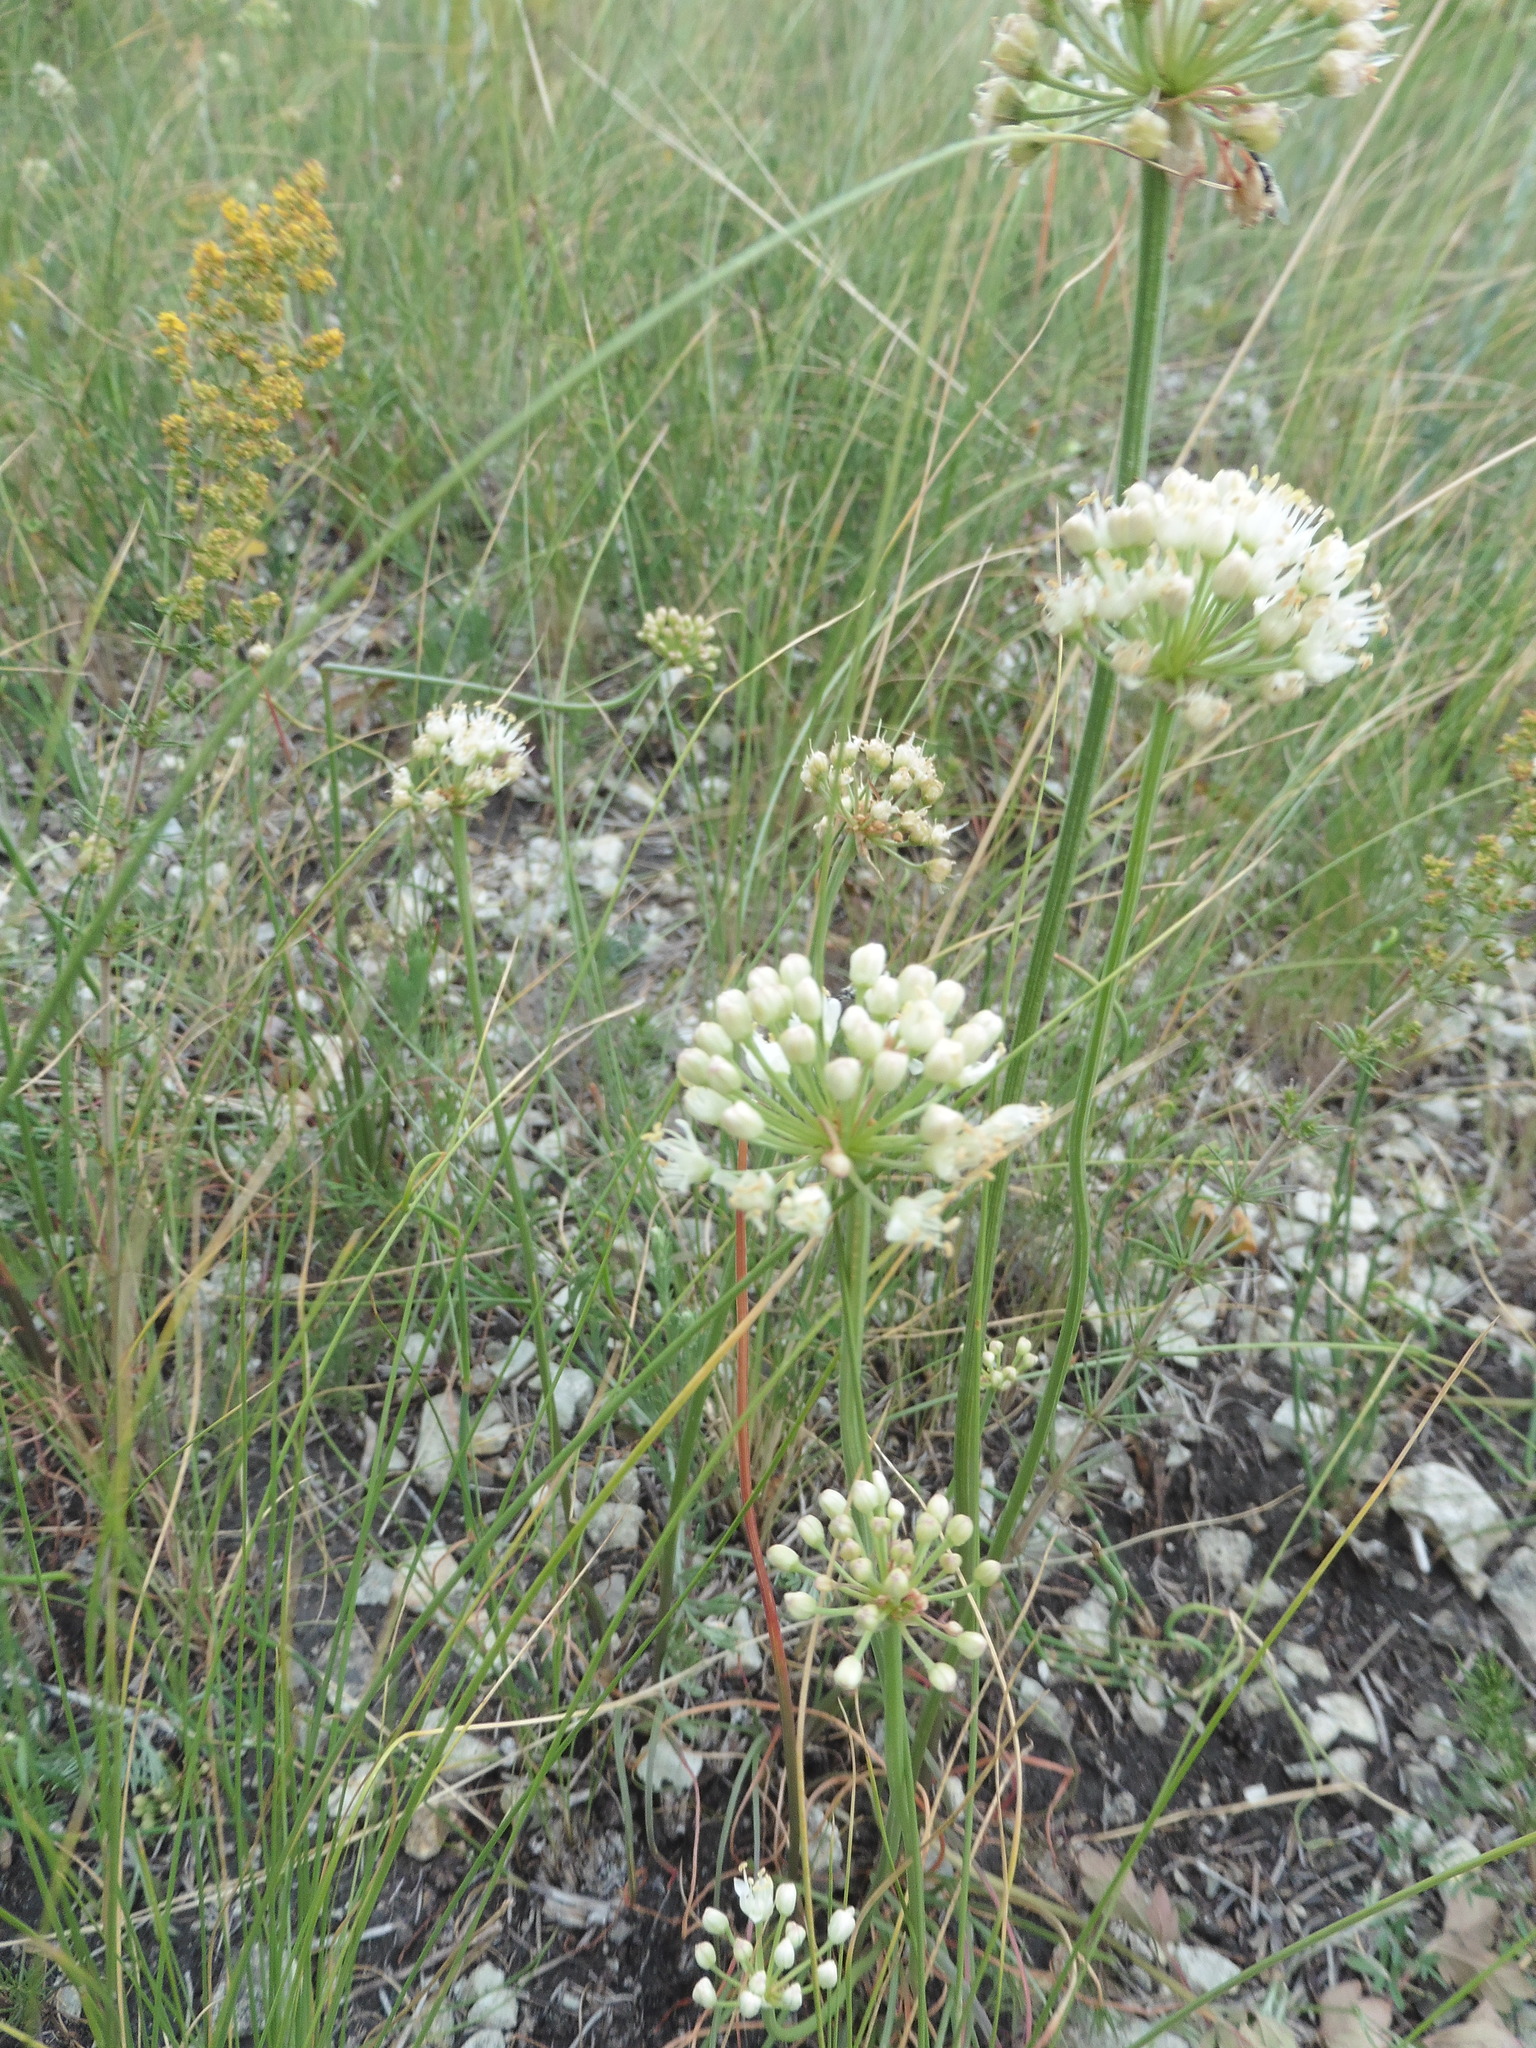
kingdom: Plantae
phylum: Tracheophyta
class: Liliopsida
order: Asparagales
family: Amaryllidaceae
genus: Allium
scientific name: Allium flavescens
